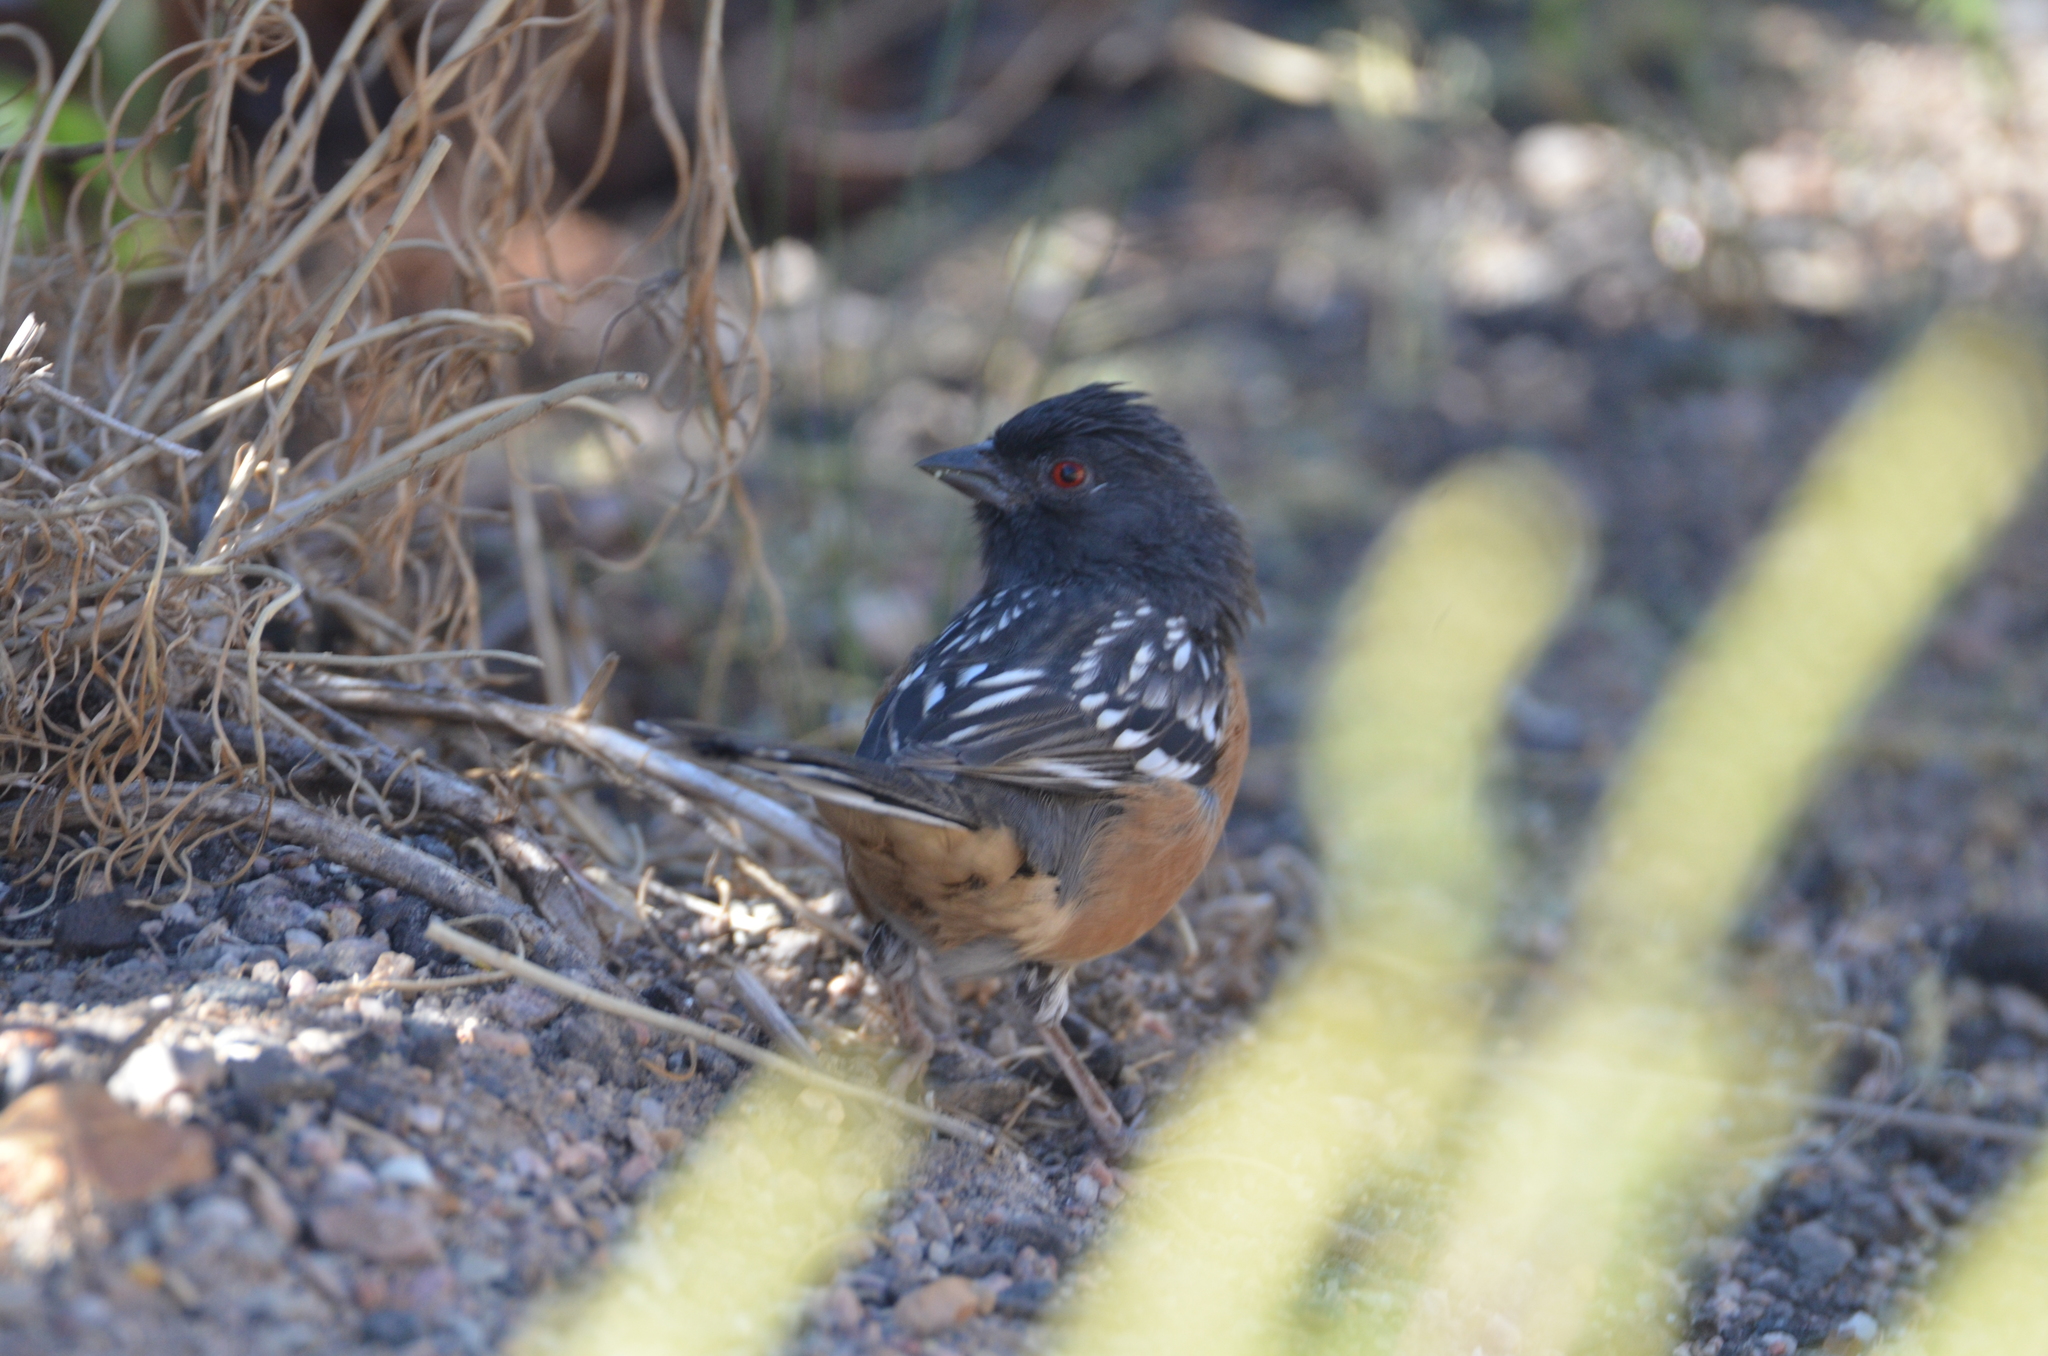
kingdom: Animalia
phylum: Chordata
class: Aves
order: Passeriformes
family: Passerellidae
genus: Pipilo
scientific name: Pipilo maculatus
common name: Spotted towhee
